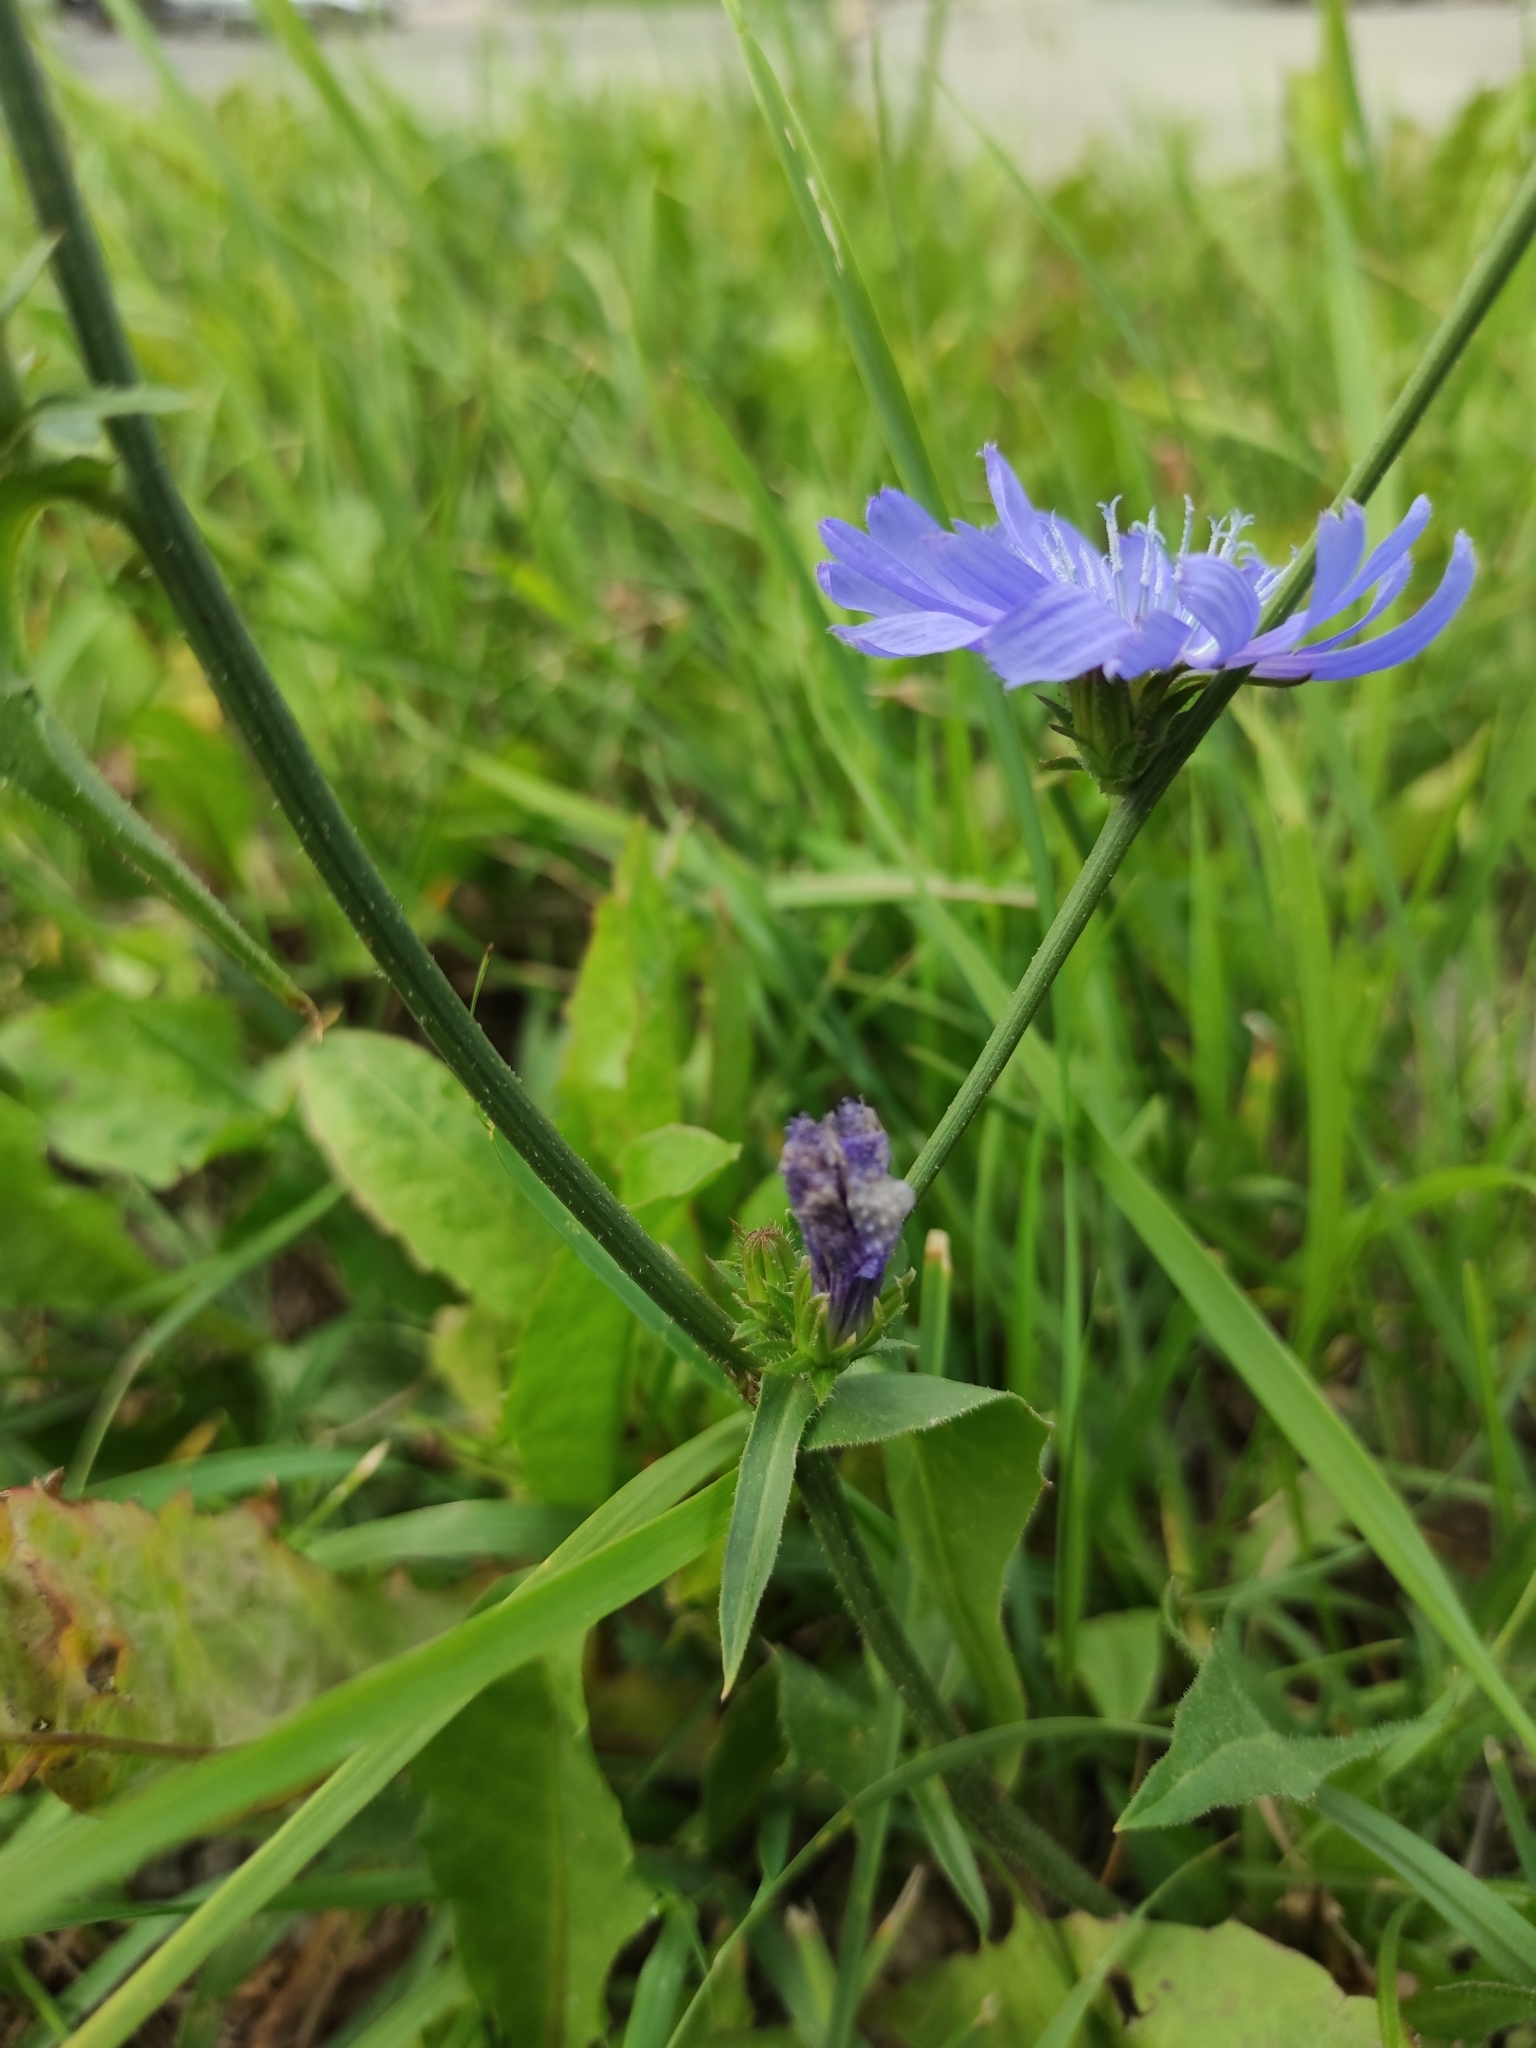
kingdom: Plantae
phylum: Tracheophyta
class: Magnoliopsida
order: Asterales
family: Asteraceae
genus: Cichorium
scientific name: Cichorium intybus
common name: Chicory
